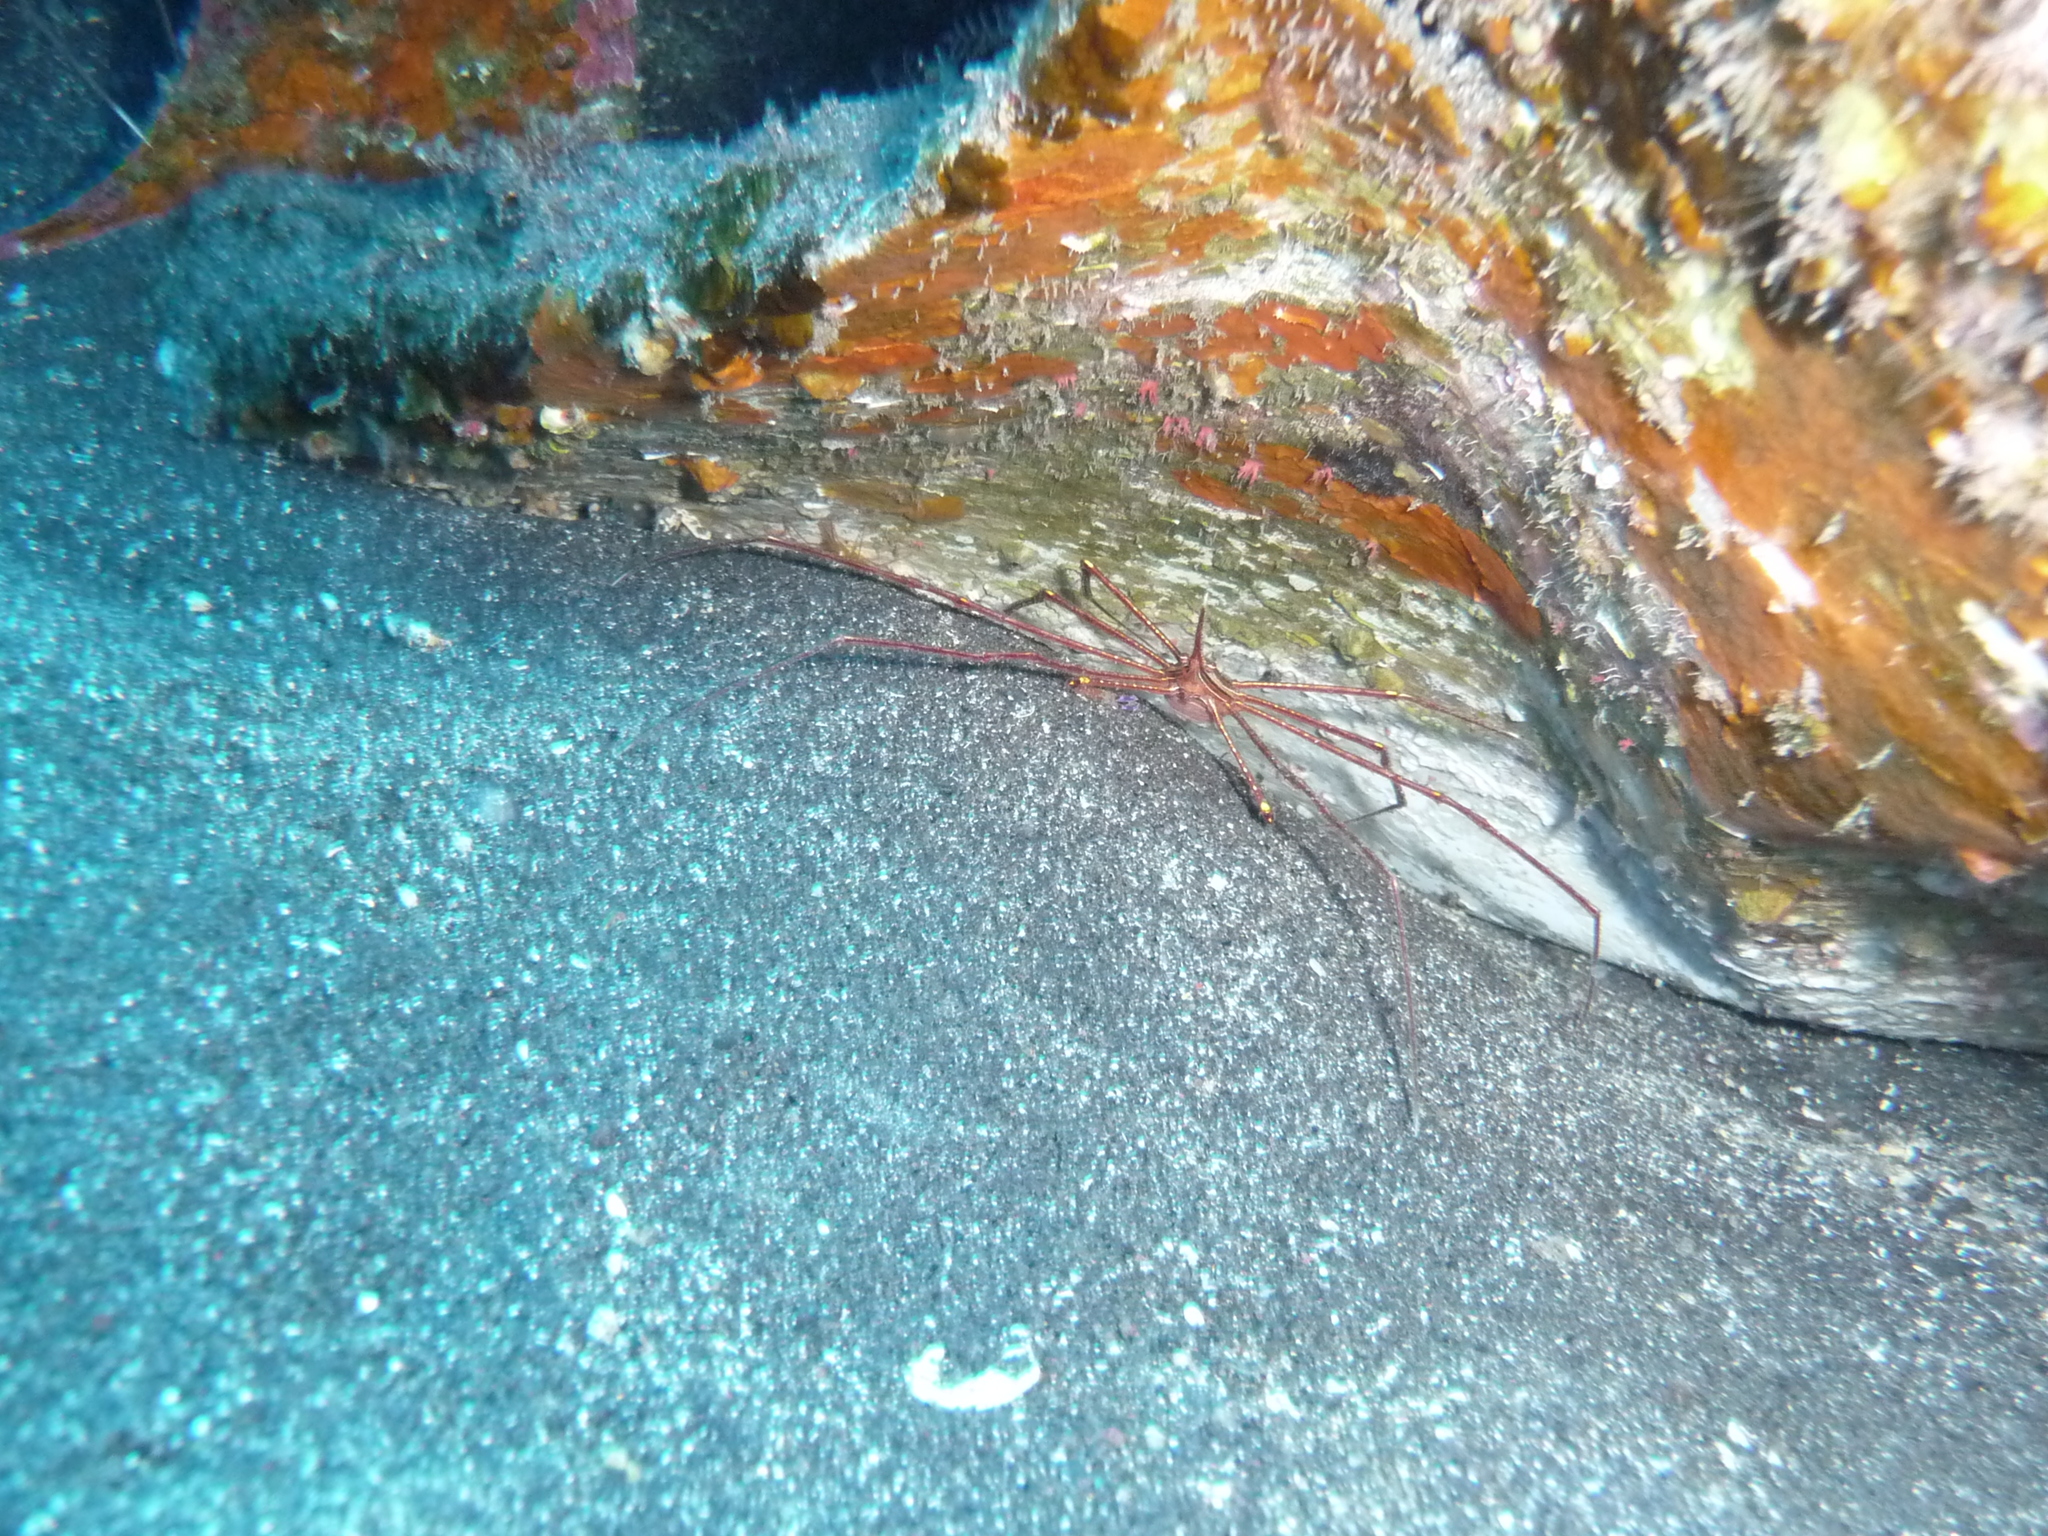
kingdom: Animalia
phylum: Arthropoda
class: Malacostraca
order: Decapoda
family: Inachoididae
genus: Stenorhynchus
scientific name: Stenorhynchus lanceolatus
